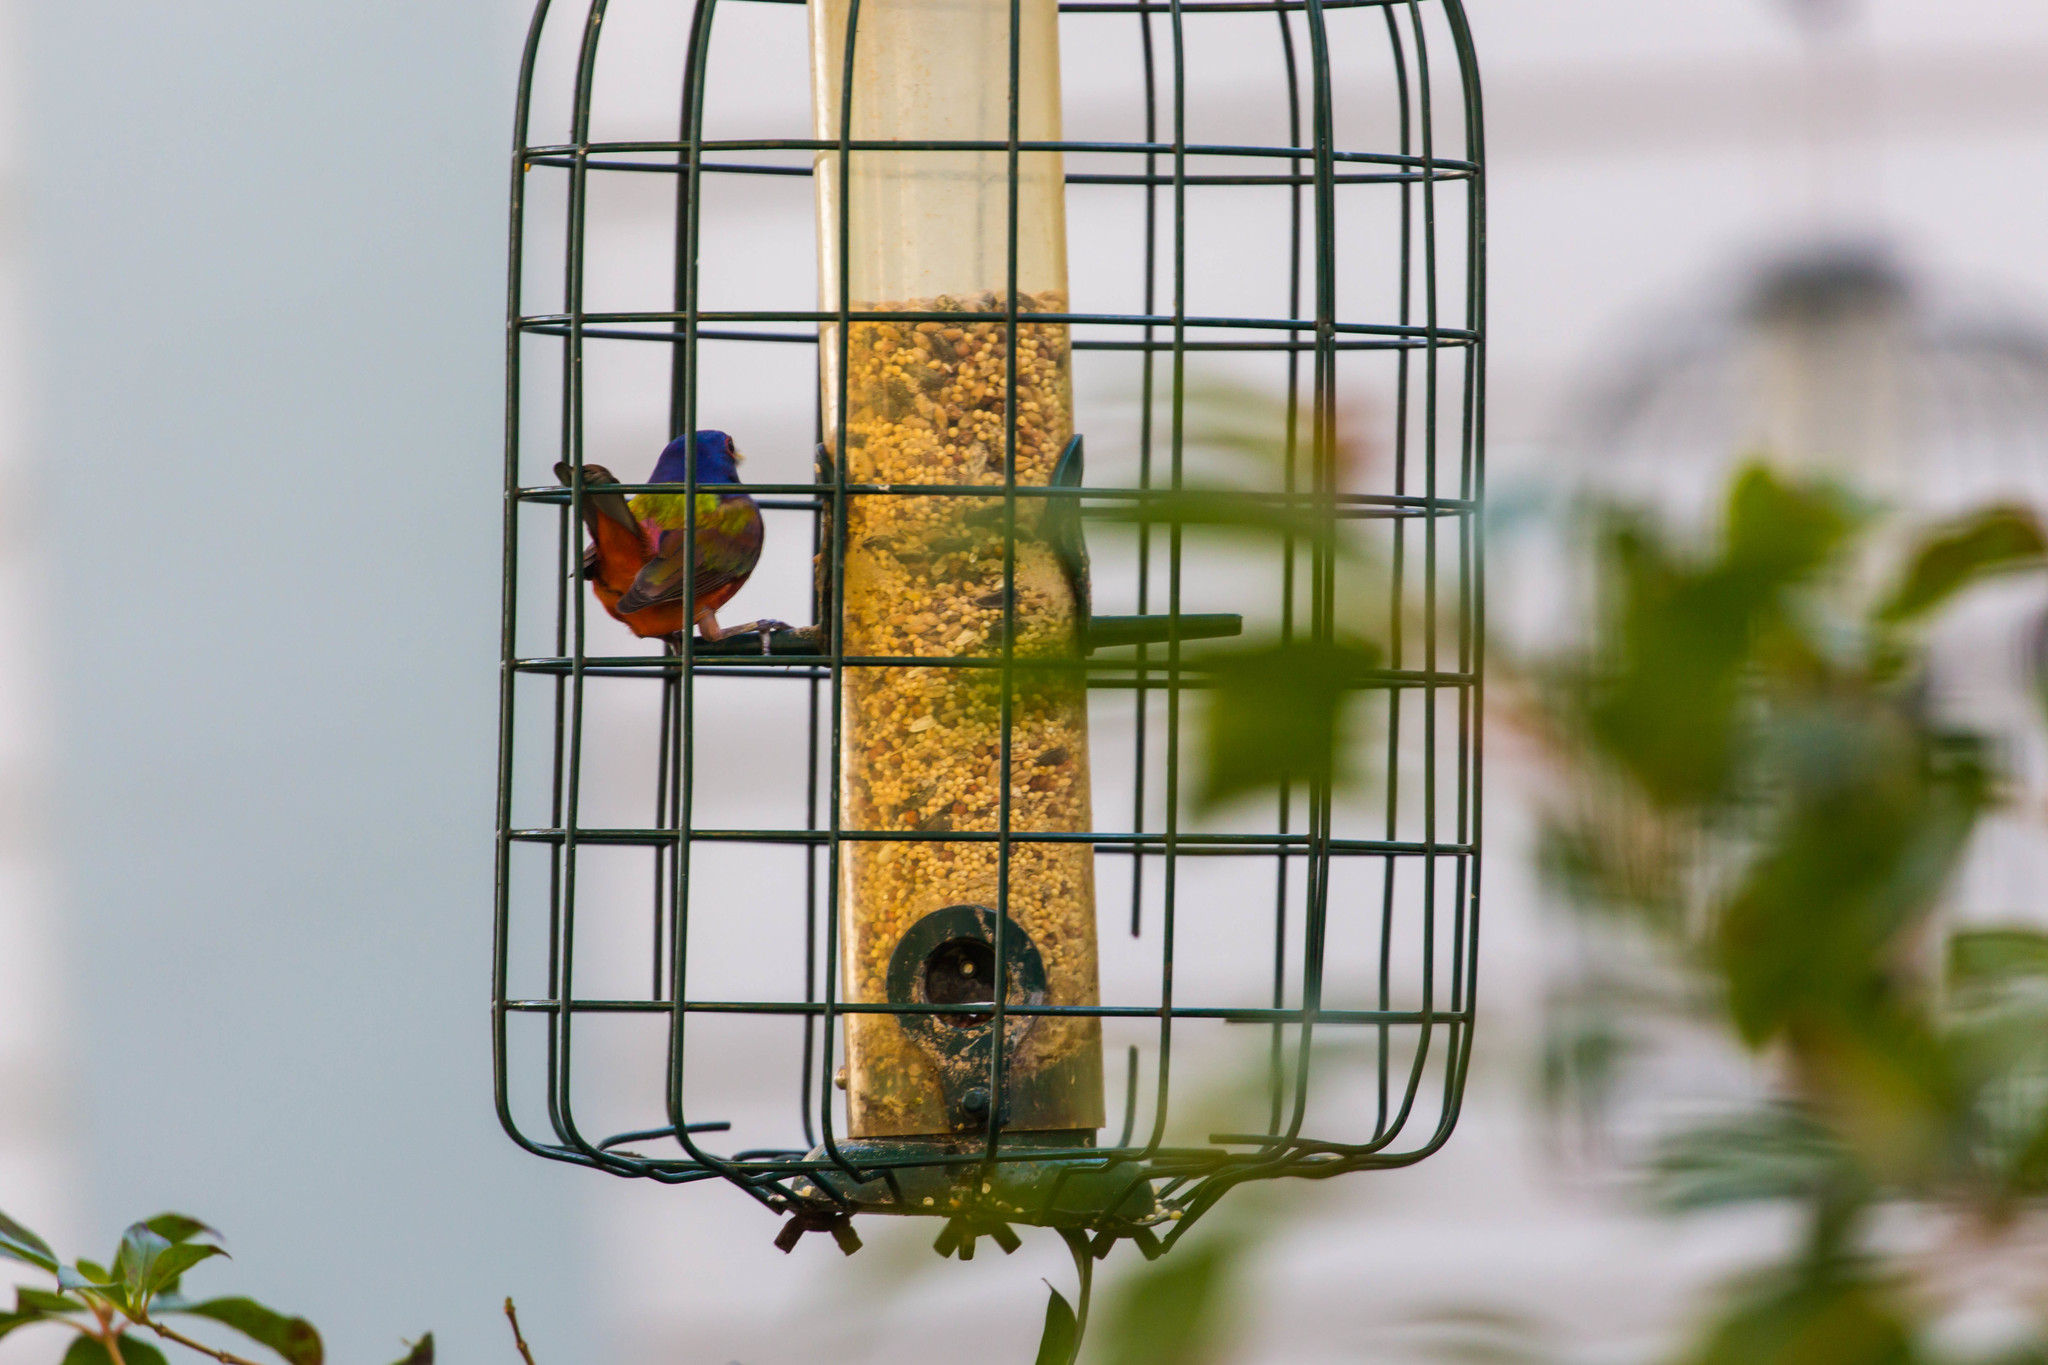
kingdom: Animalia
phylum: Chordata
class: Aves
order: Passeriformes
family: Cardinalidae
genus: Passerina
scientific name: Passerina ciris
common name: Painted bunting
